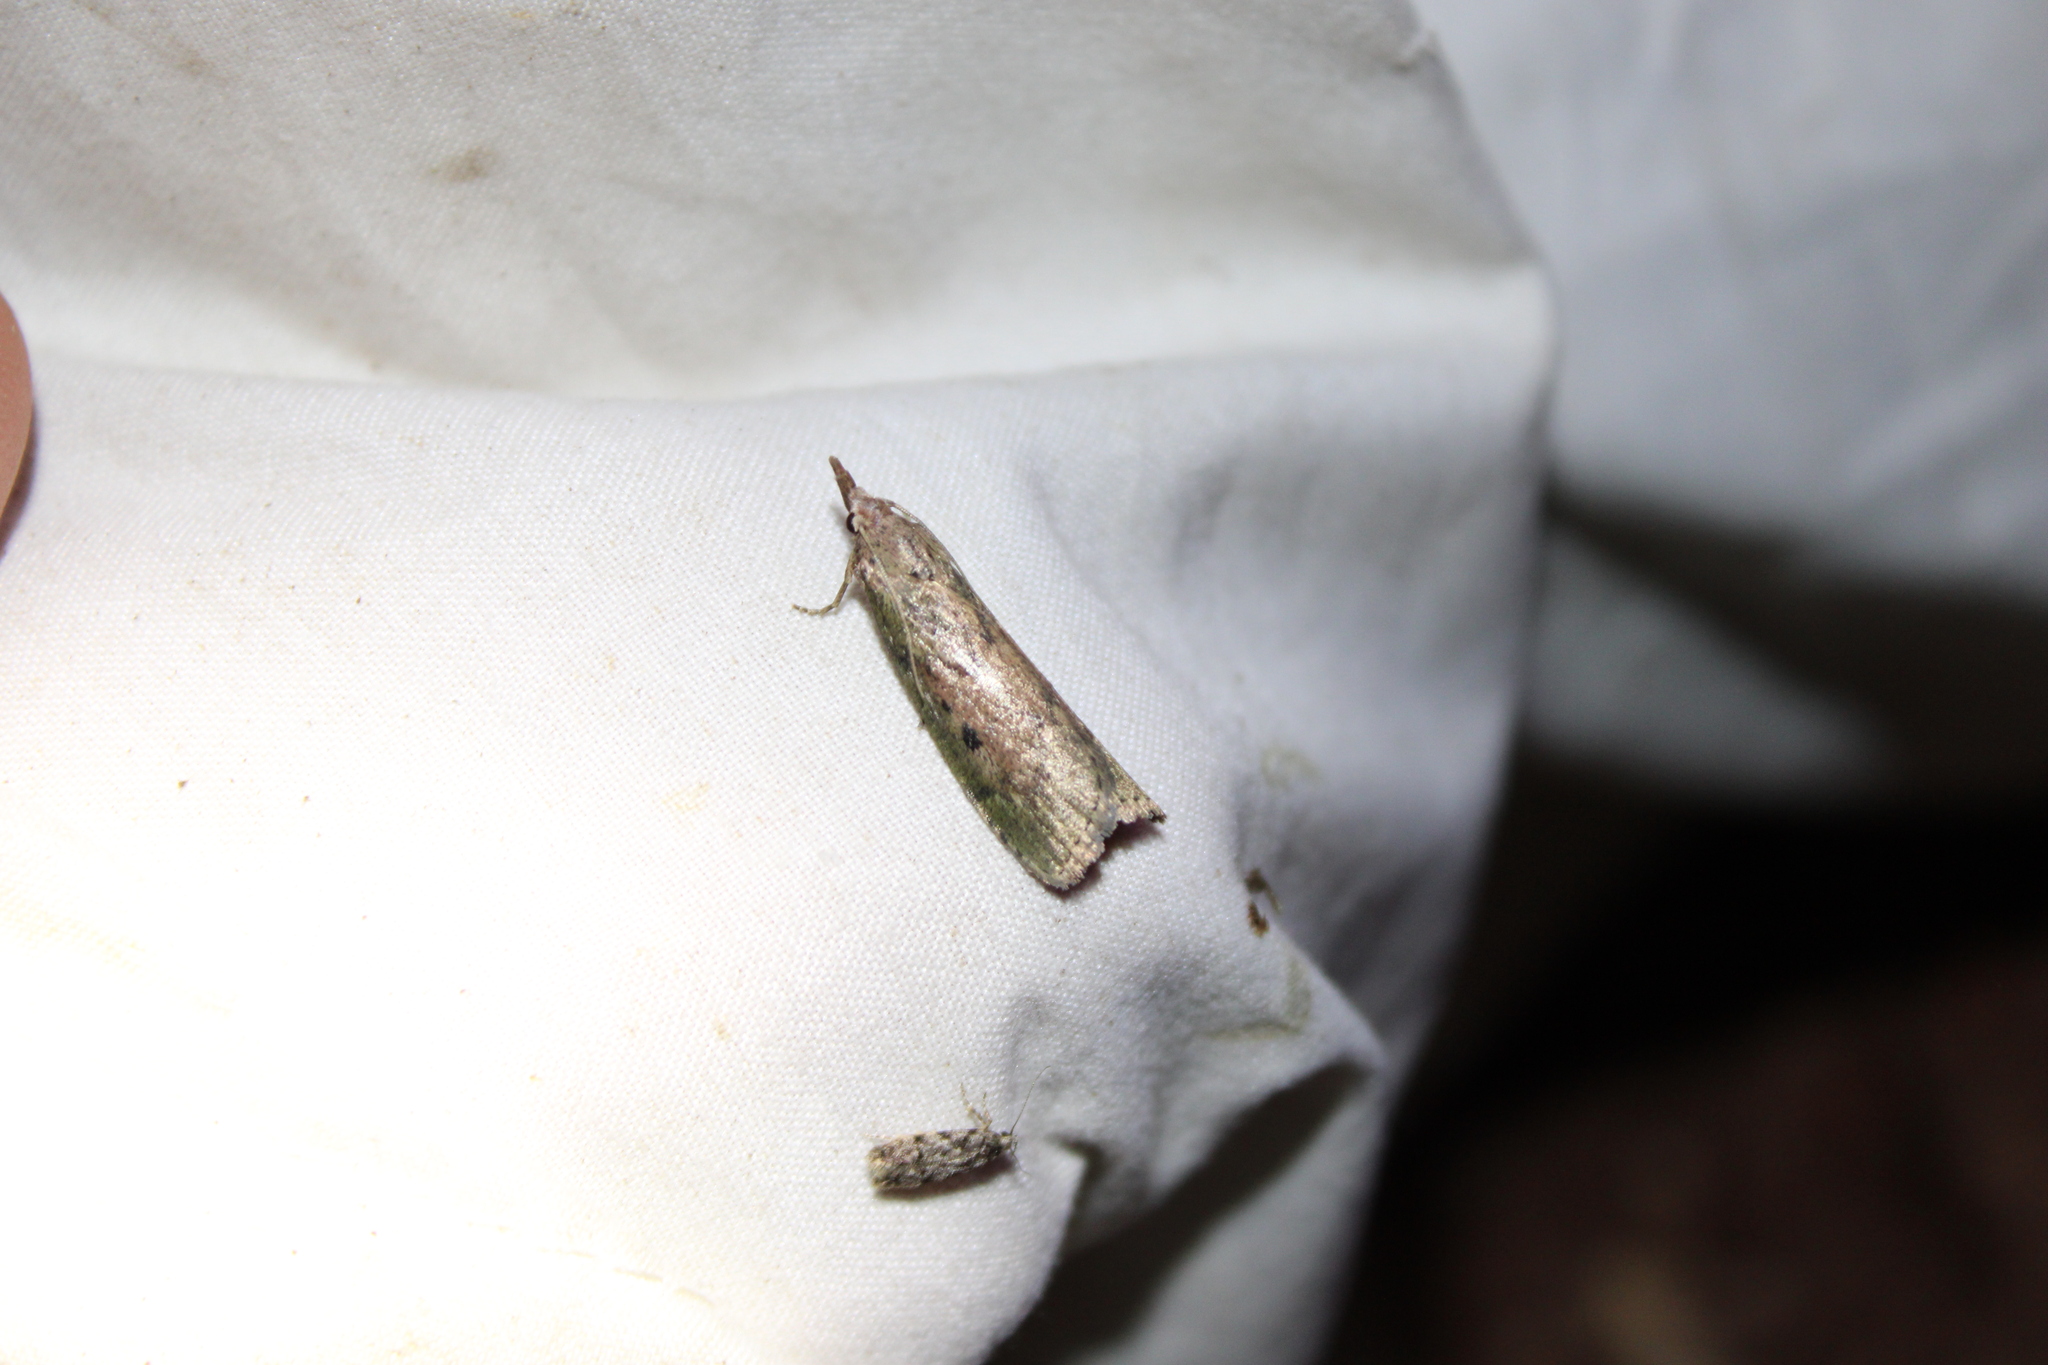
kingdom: Animalia
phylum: Arthropoda
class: Insecta
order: Lepidoptera
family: Pyralidae
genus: Aphomia
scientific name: Aphomia sociella
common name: Bee moth
